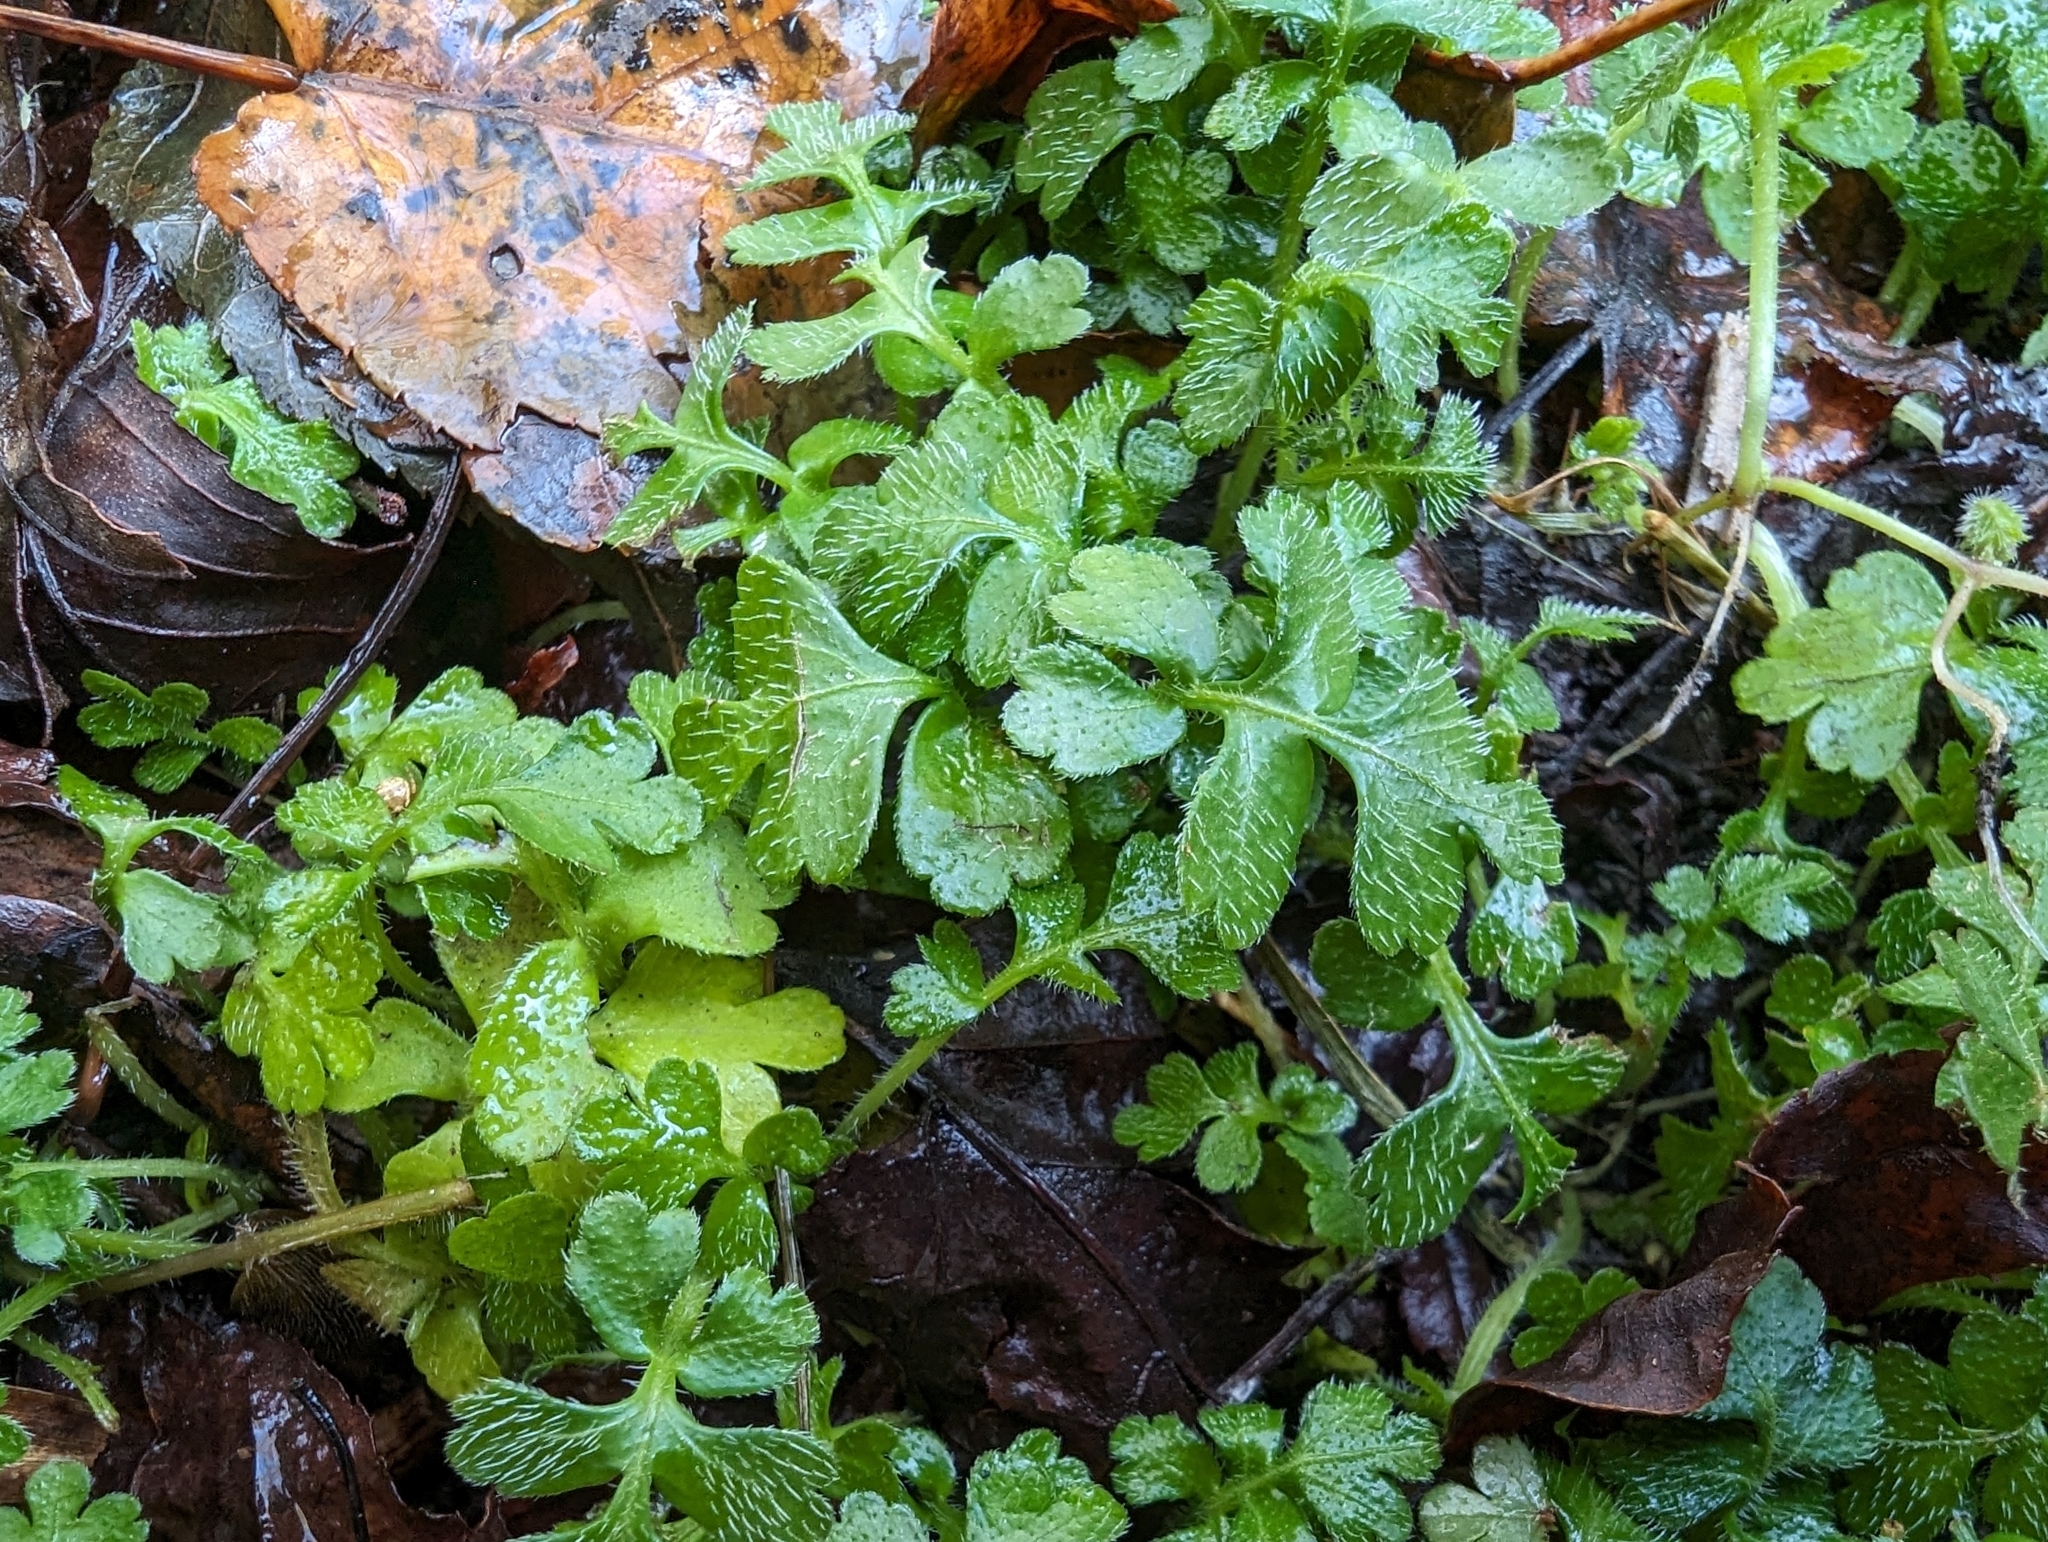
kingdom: Plantae
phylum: Tracheophyta
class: Magnoliopsida
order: Lamiales
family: Plantaginaceae
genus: Ellisiophyllum
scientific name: Ellisiophyllum pinnatum
